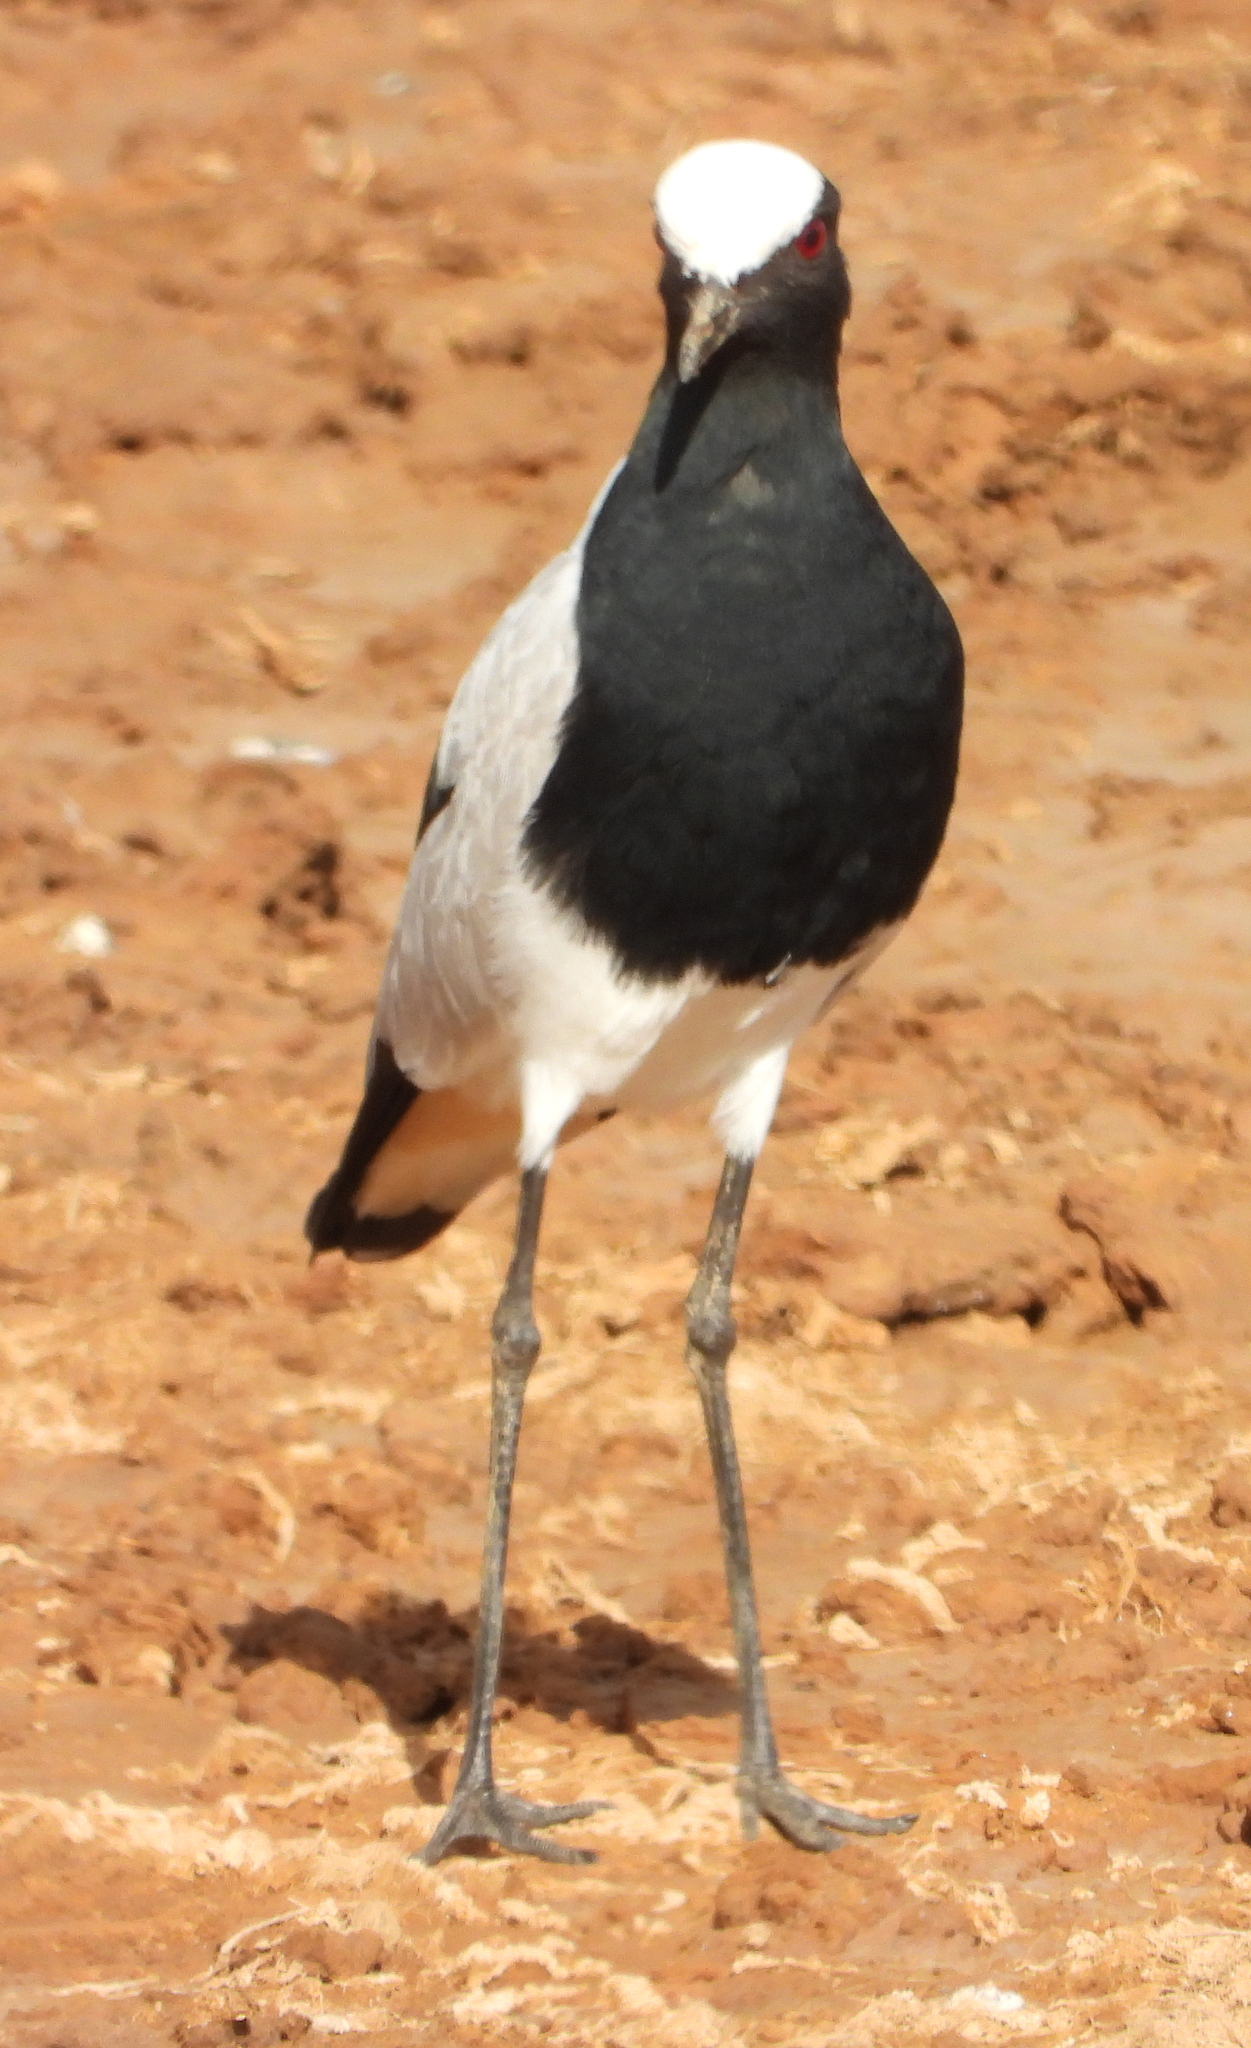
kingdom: Animalia
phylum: Chordata
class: Aves
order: Charadriiformes
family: Charadriidae
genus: Vanellus
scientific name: Vanellus armatus
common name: Blacksmith lapwing
